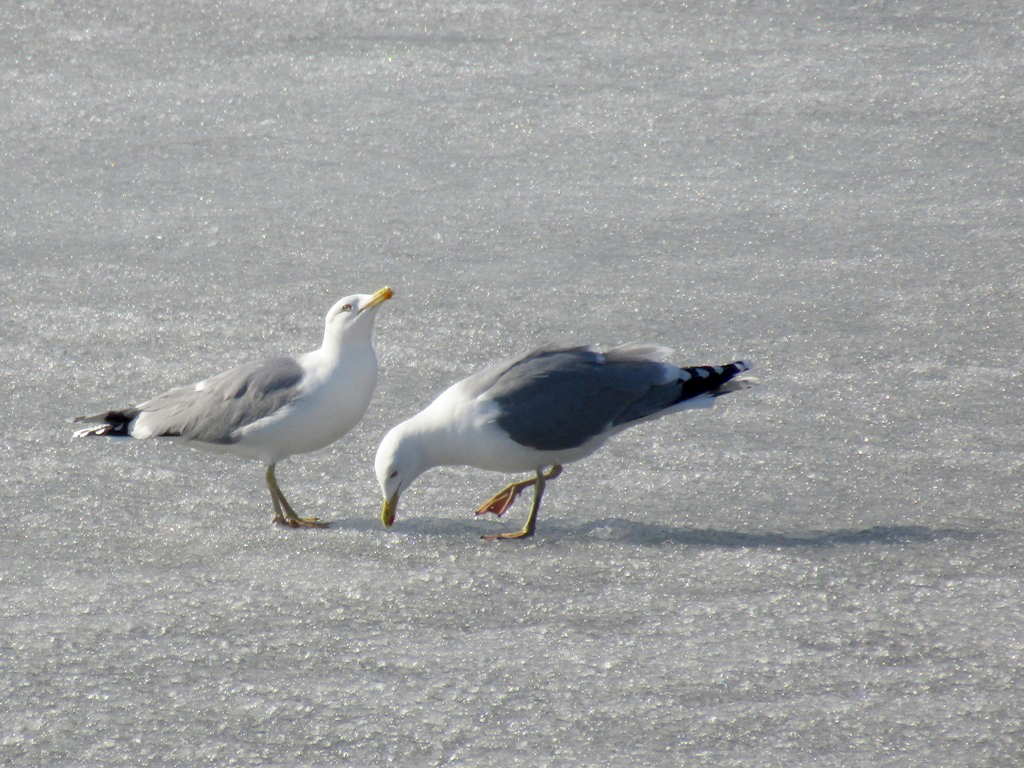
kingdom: Animalia
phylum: Chordata
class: Aves
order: Charadriiformes
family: Laridae
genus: Larus
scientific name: Larus argentatus
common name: Herring gull
